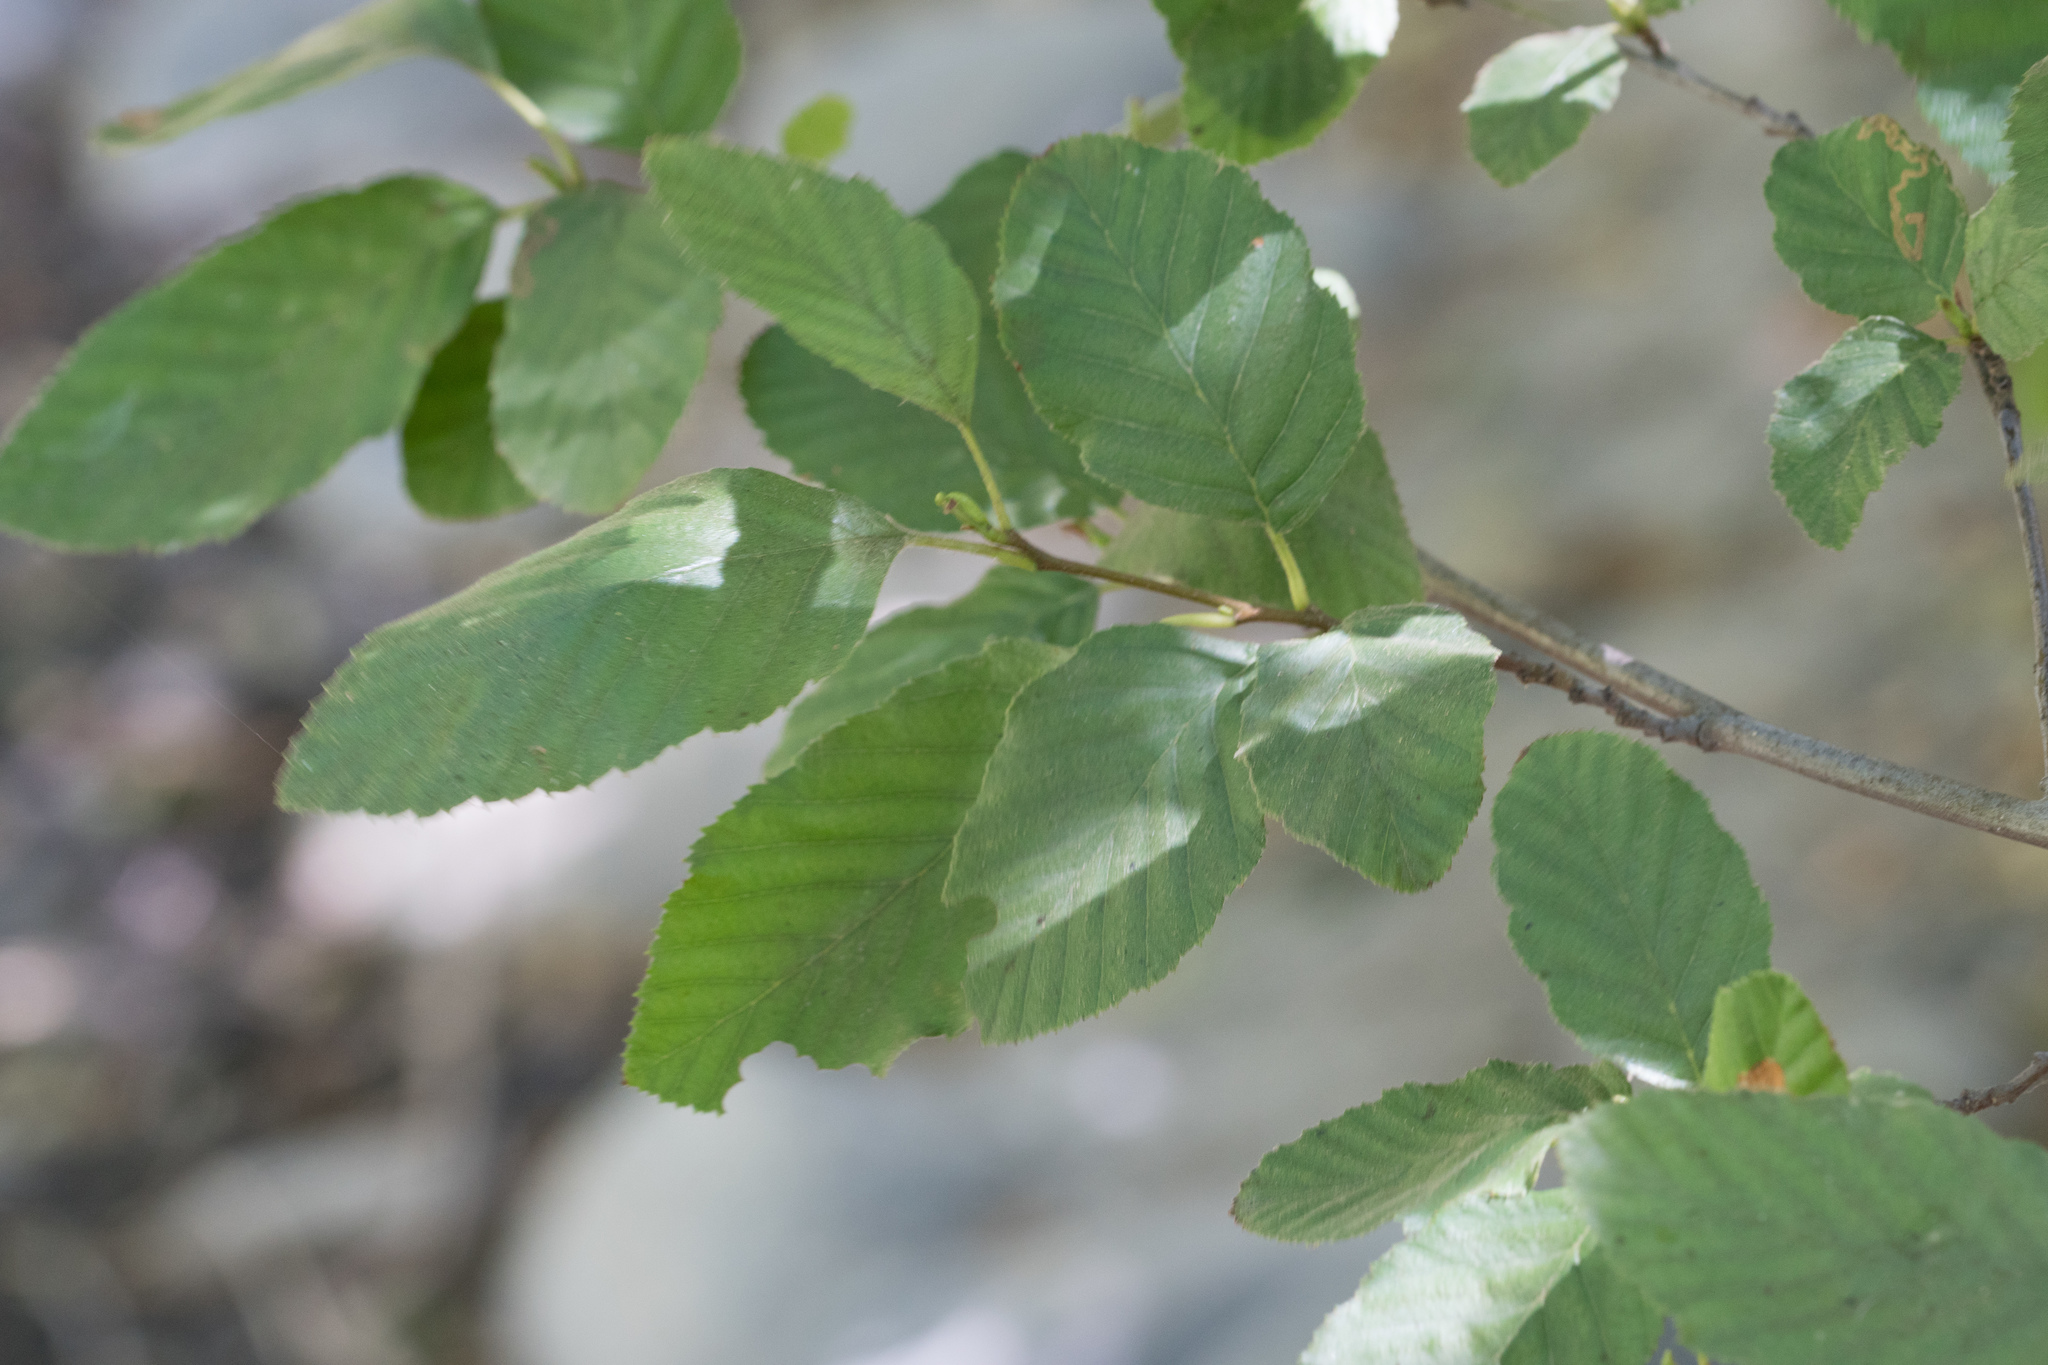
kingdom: Plantae
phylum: Tracheophyta
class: Magnoliopsida
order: Fagales
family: Betulaceae
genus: Alnus
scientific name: Alnus rhombifolia
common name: California alder
